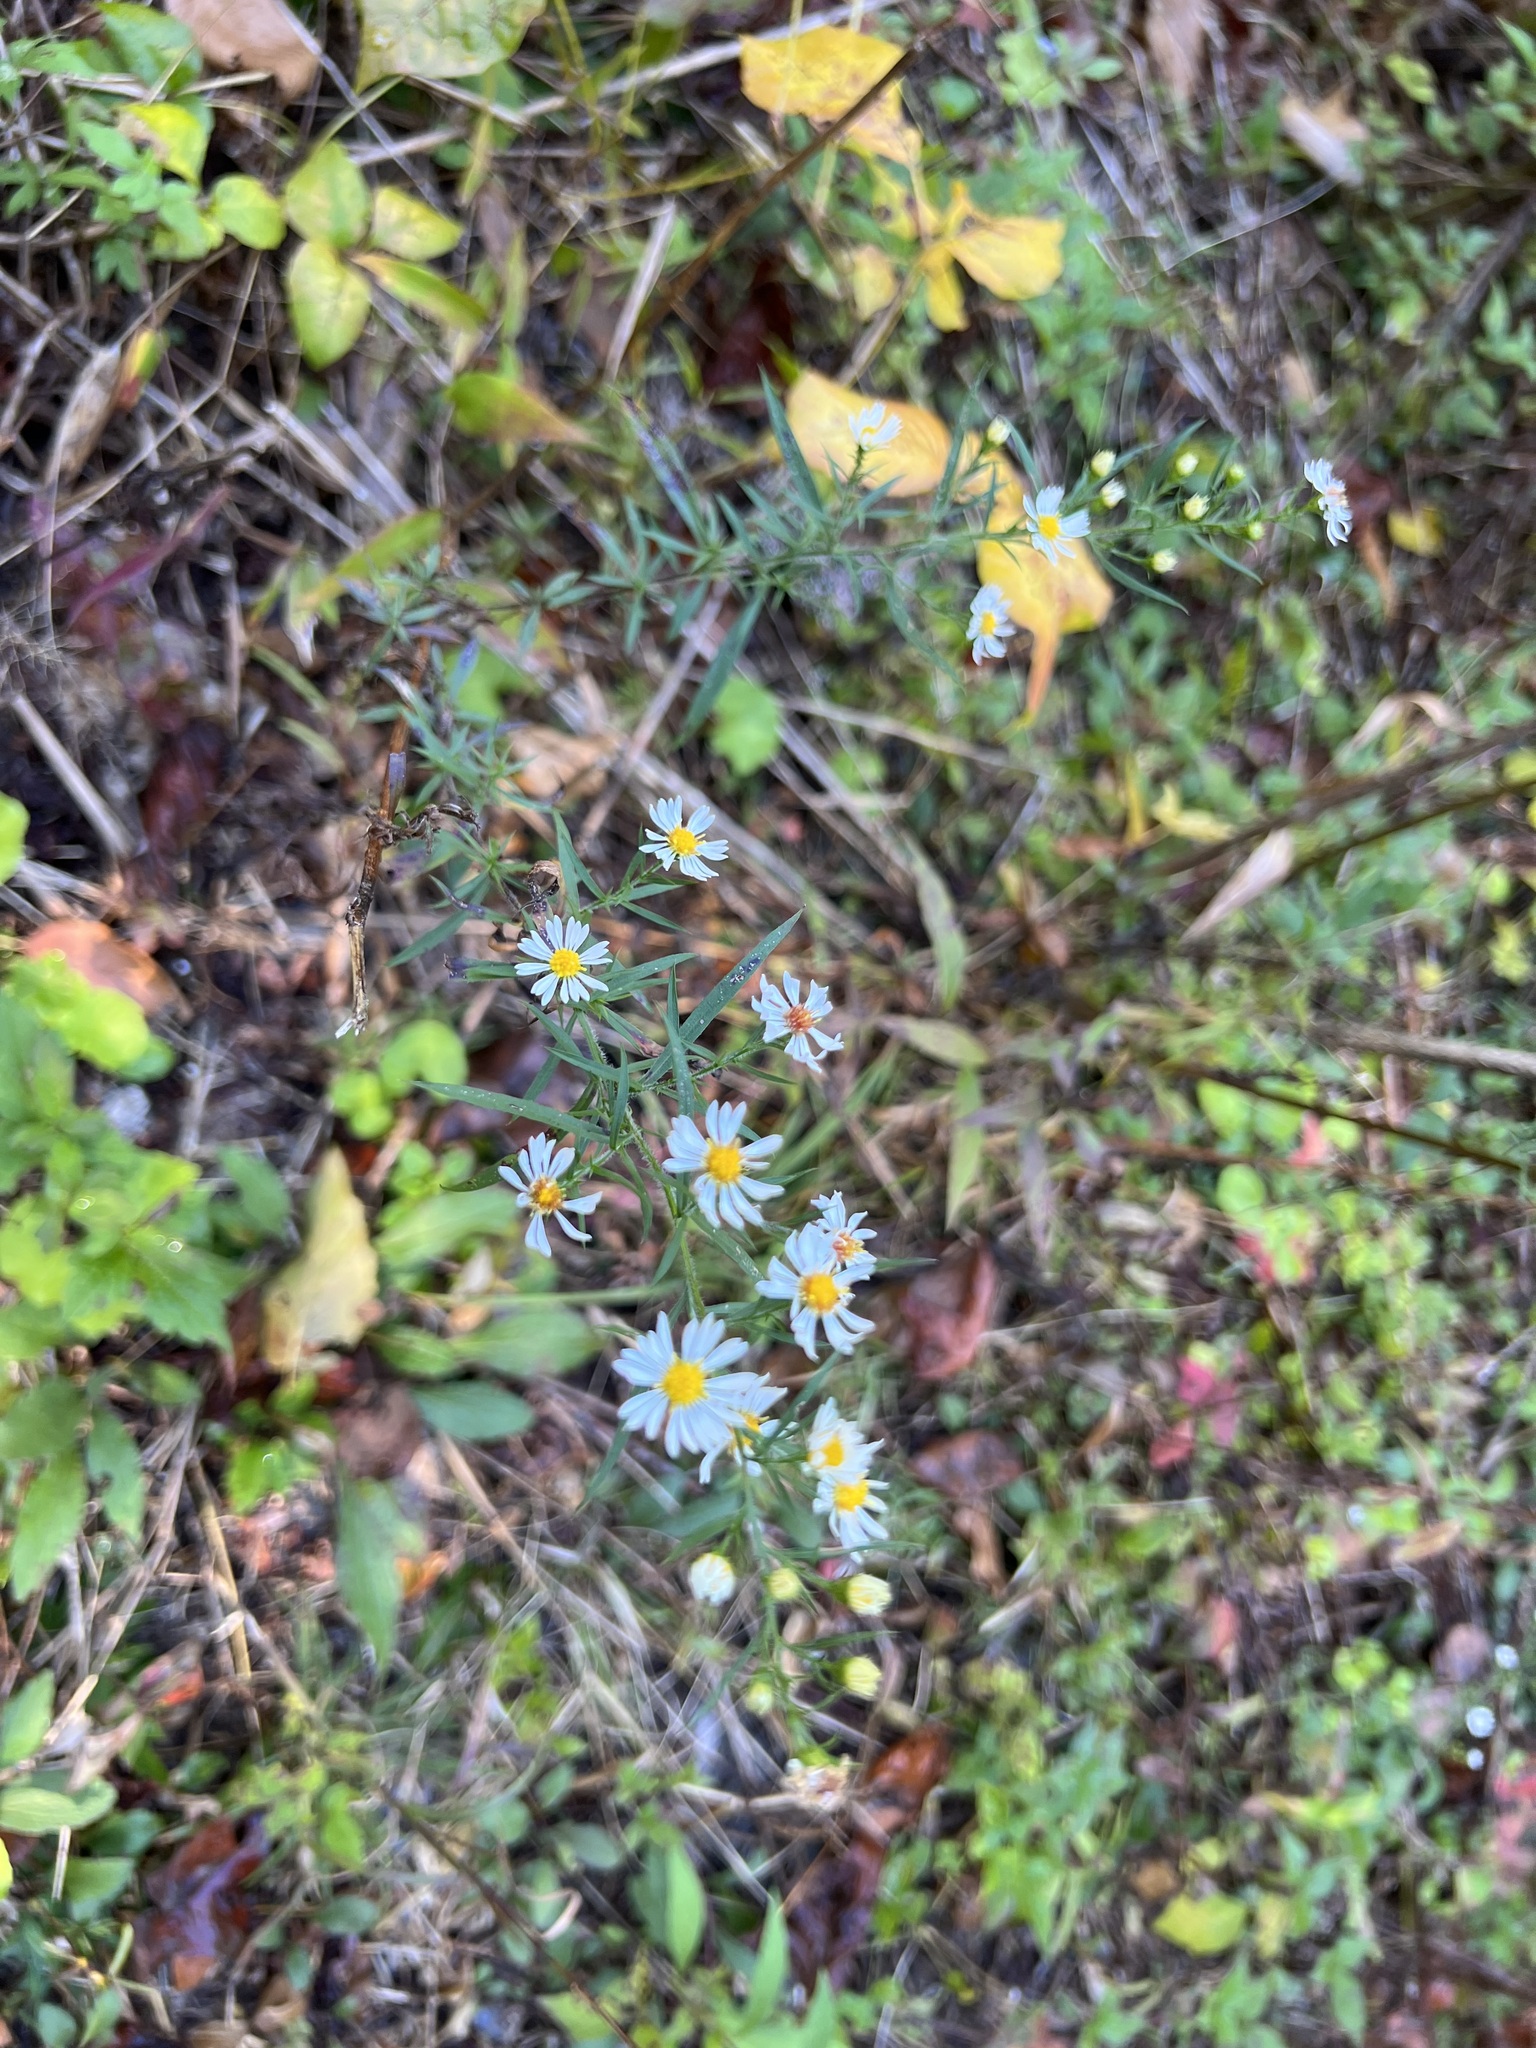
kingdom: Plantae
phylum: Tracheophyta
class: Magnoliopsida
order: Asterales
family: Asteraceae
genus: Symphyotrichum
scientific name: Symphyotrichum dumosum
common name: Bushy aster
